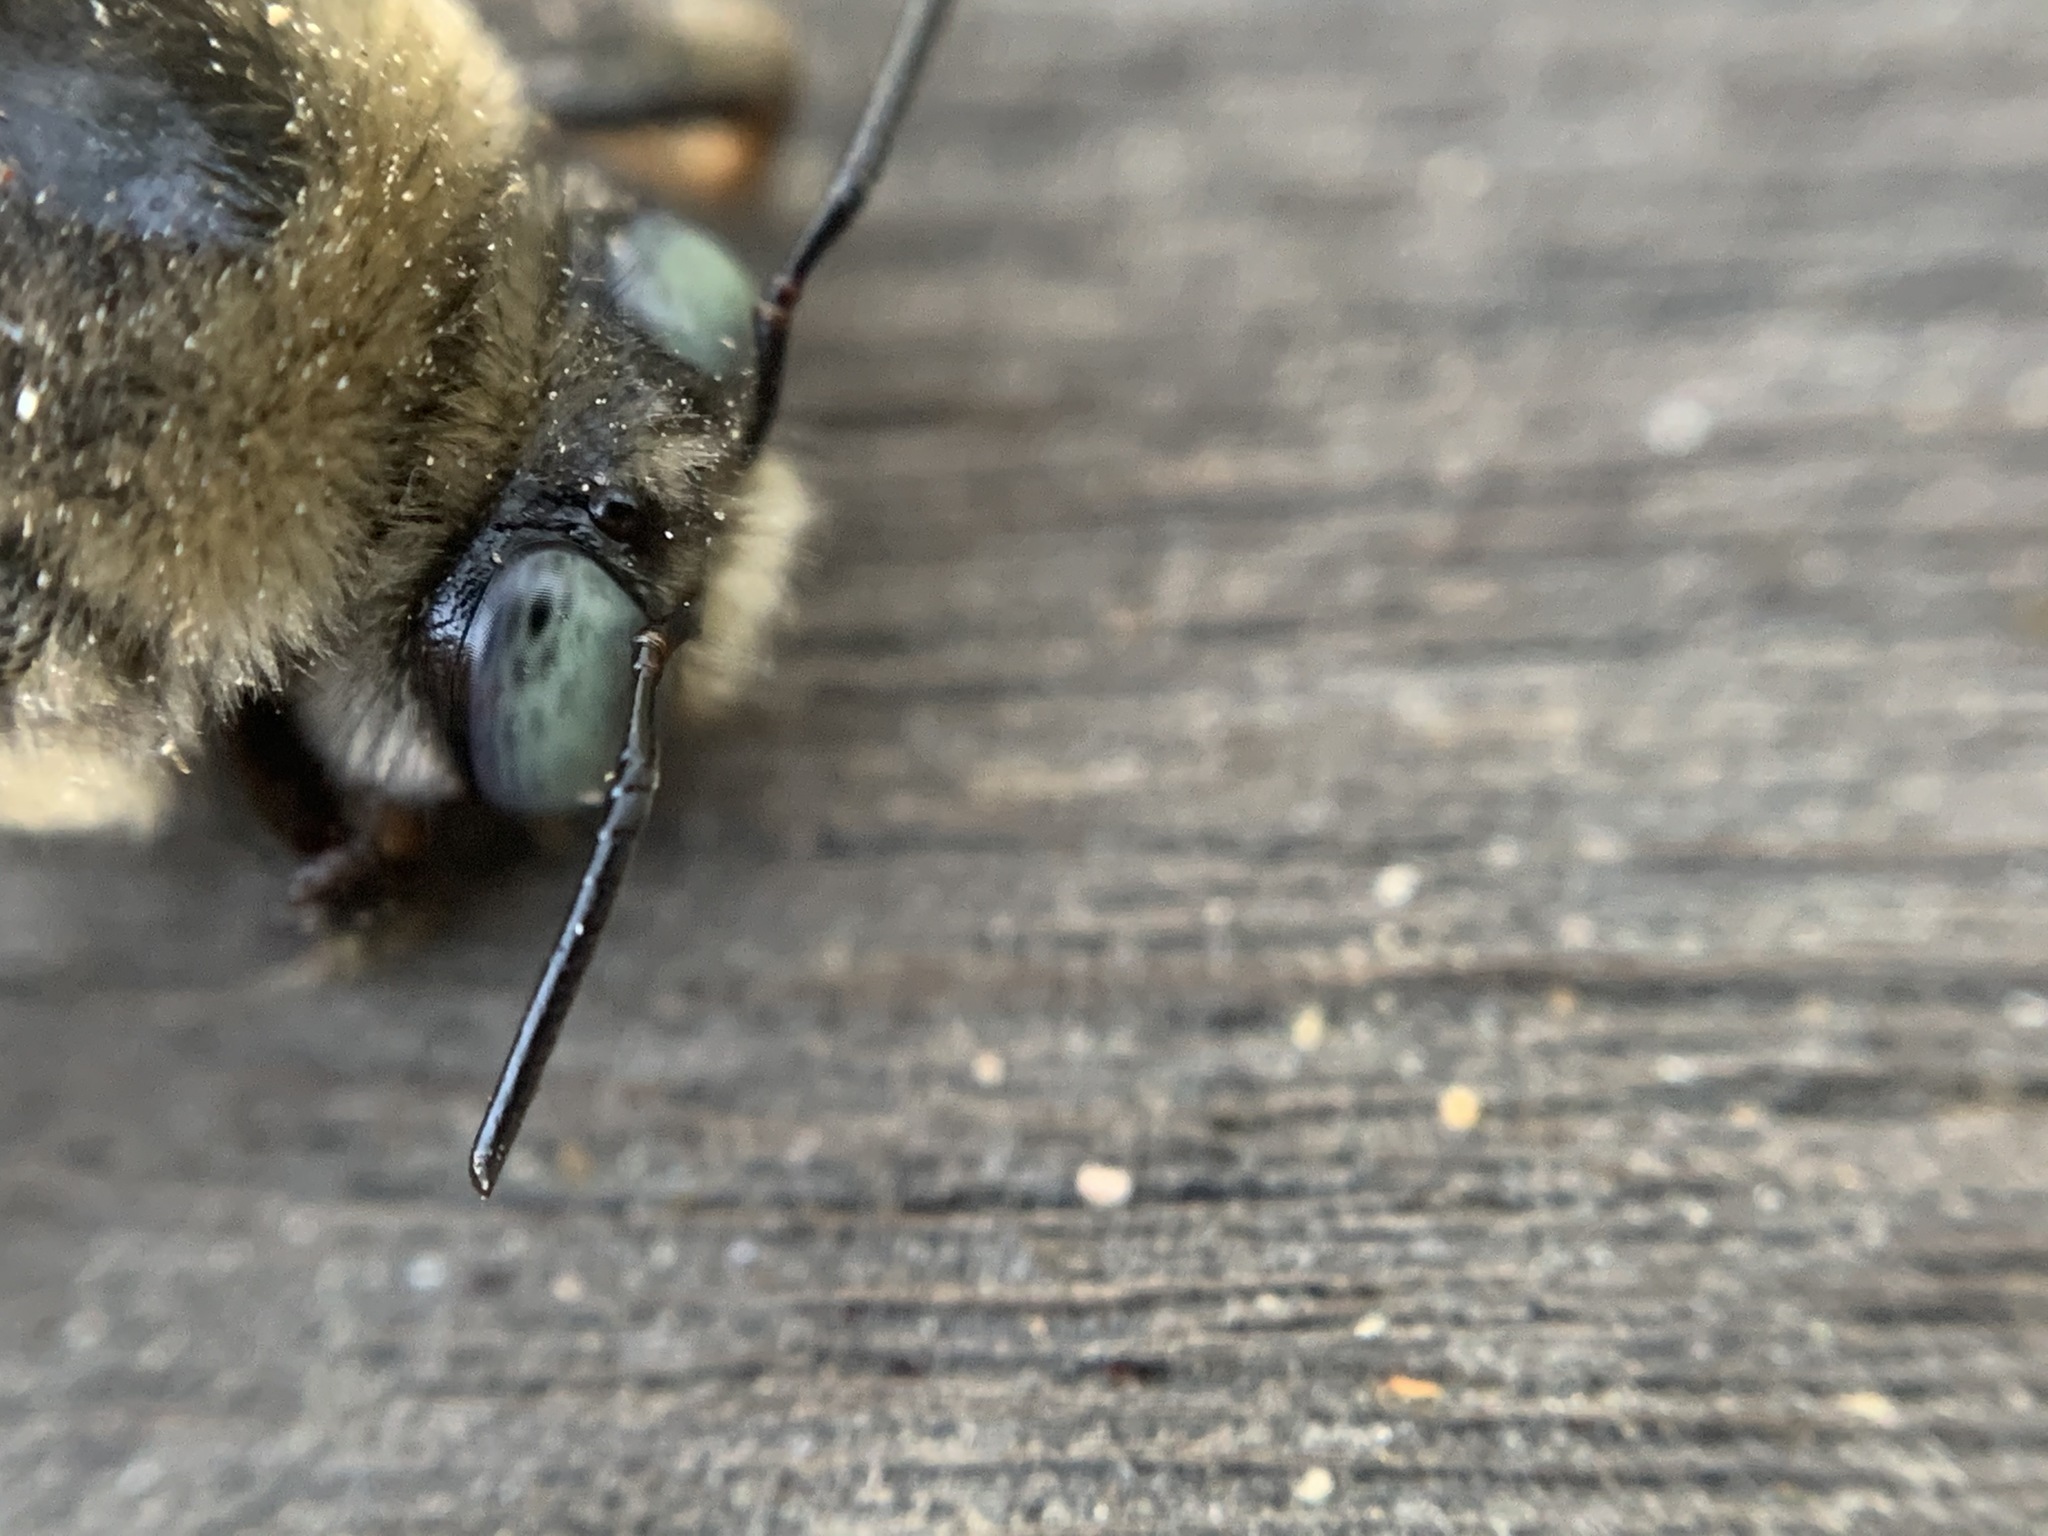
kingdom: Animalia
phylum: Arthropoda
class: Insecta
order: Hymenoptera
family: Apidae
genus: Xylocopa
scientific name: Xylocopa tabaniformis
